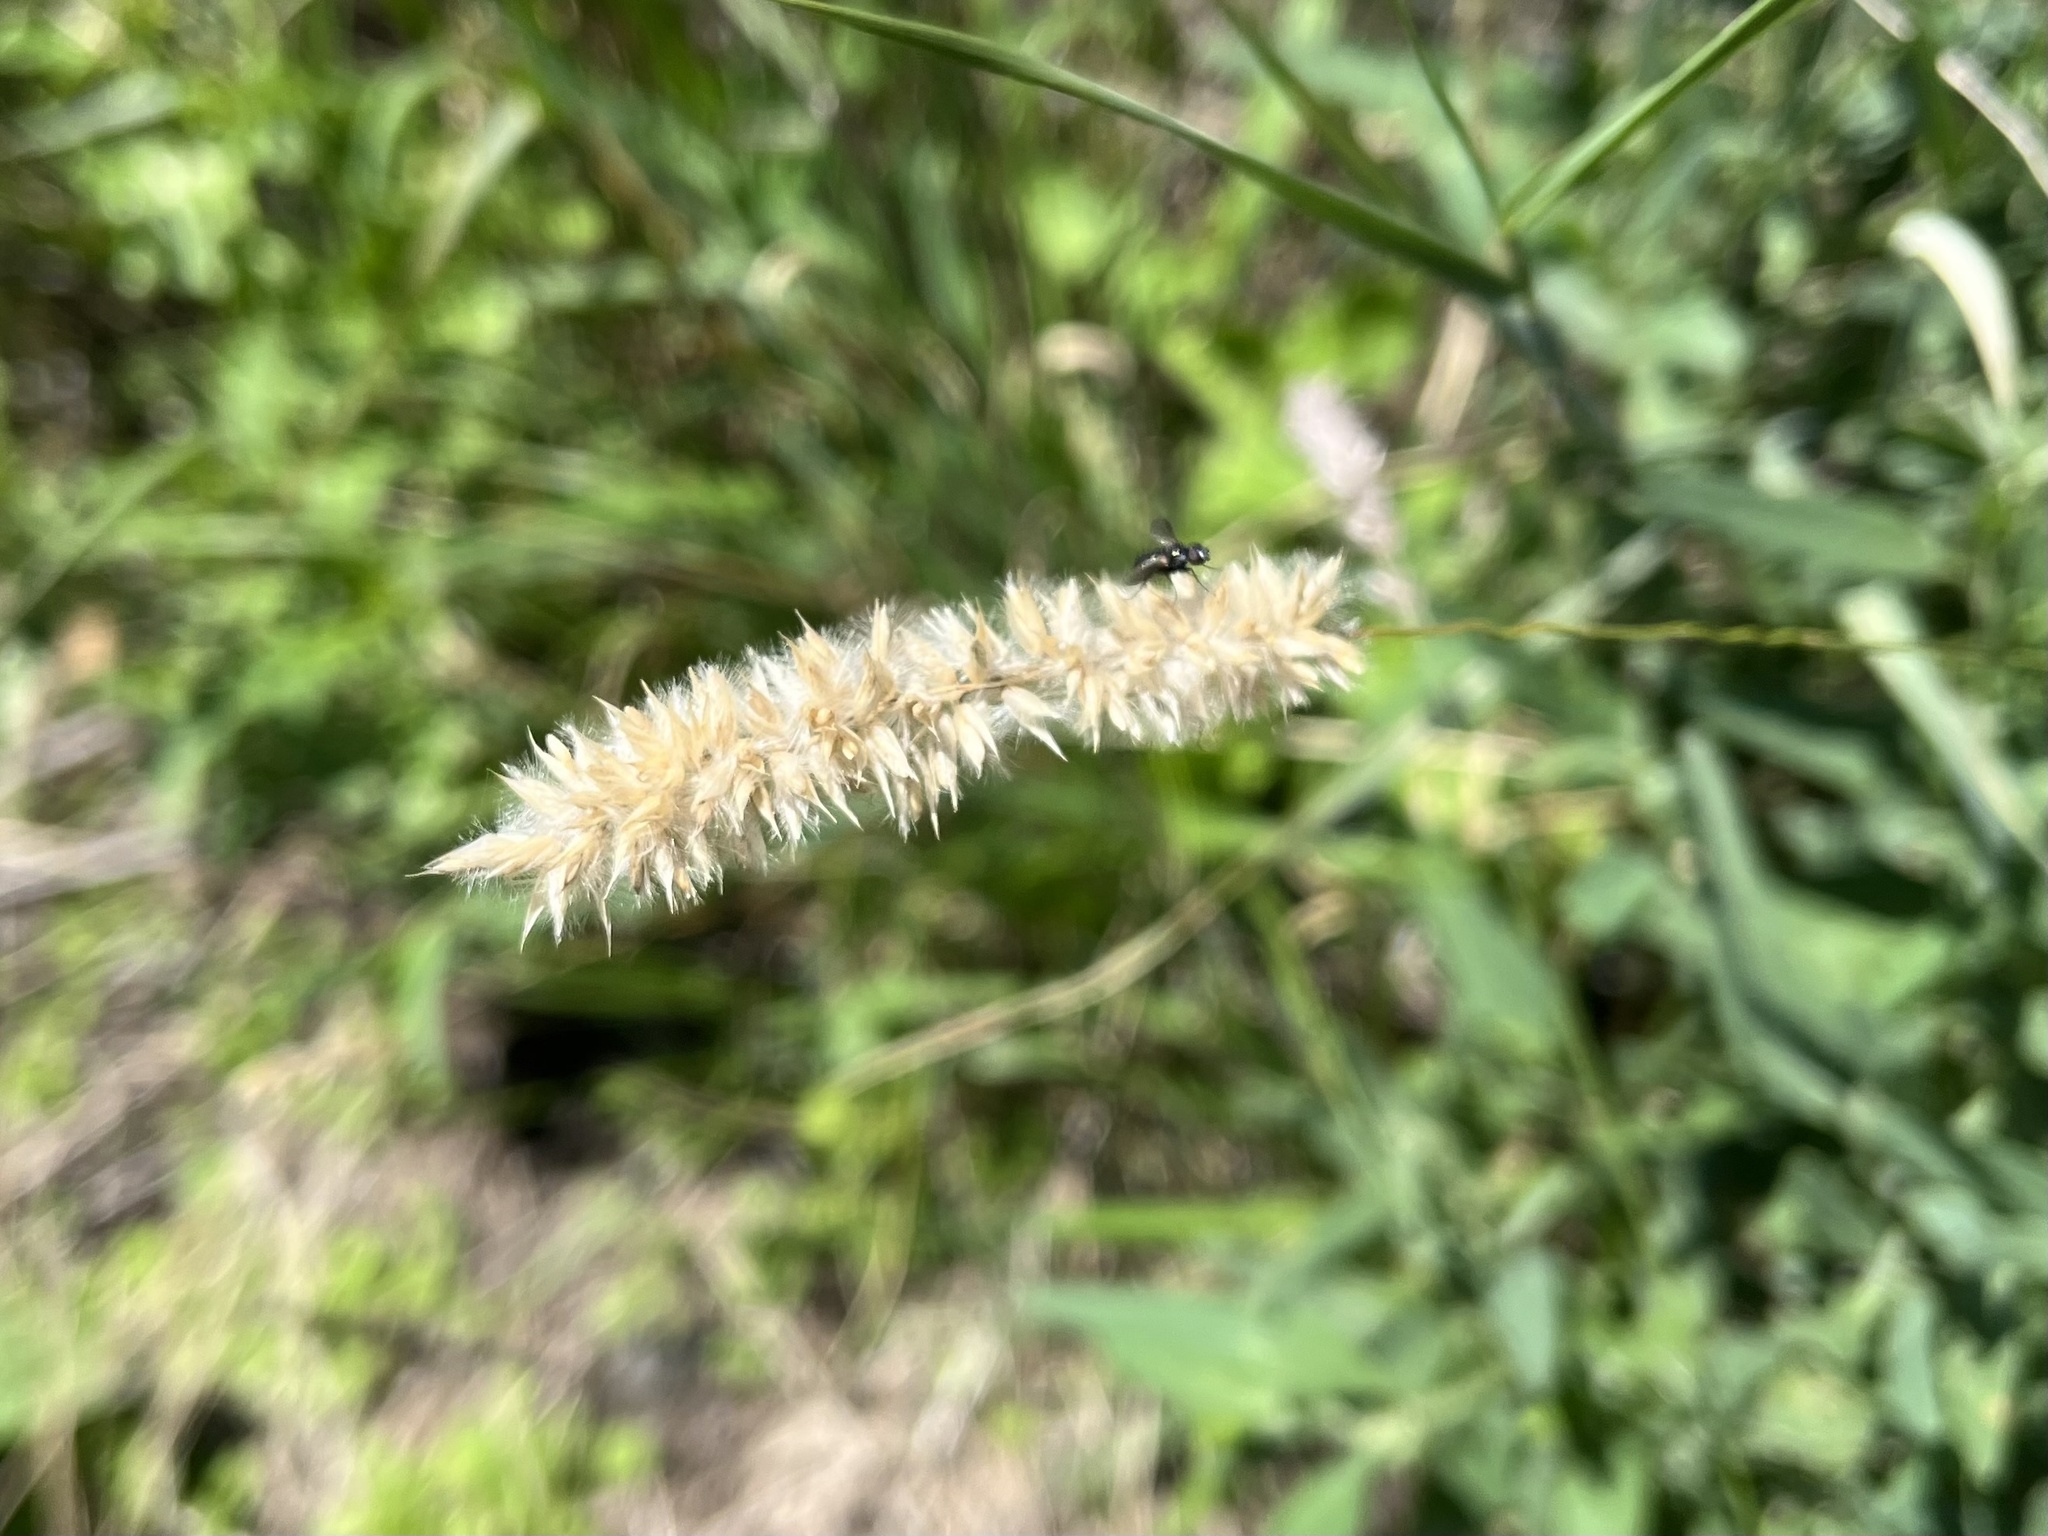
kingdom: Plantae
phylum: Tracheophyta
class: Liliopsida
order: Poales
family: Poaceae
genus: Melica
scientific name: Melica transsilvanica
